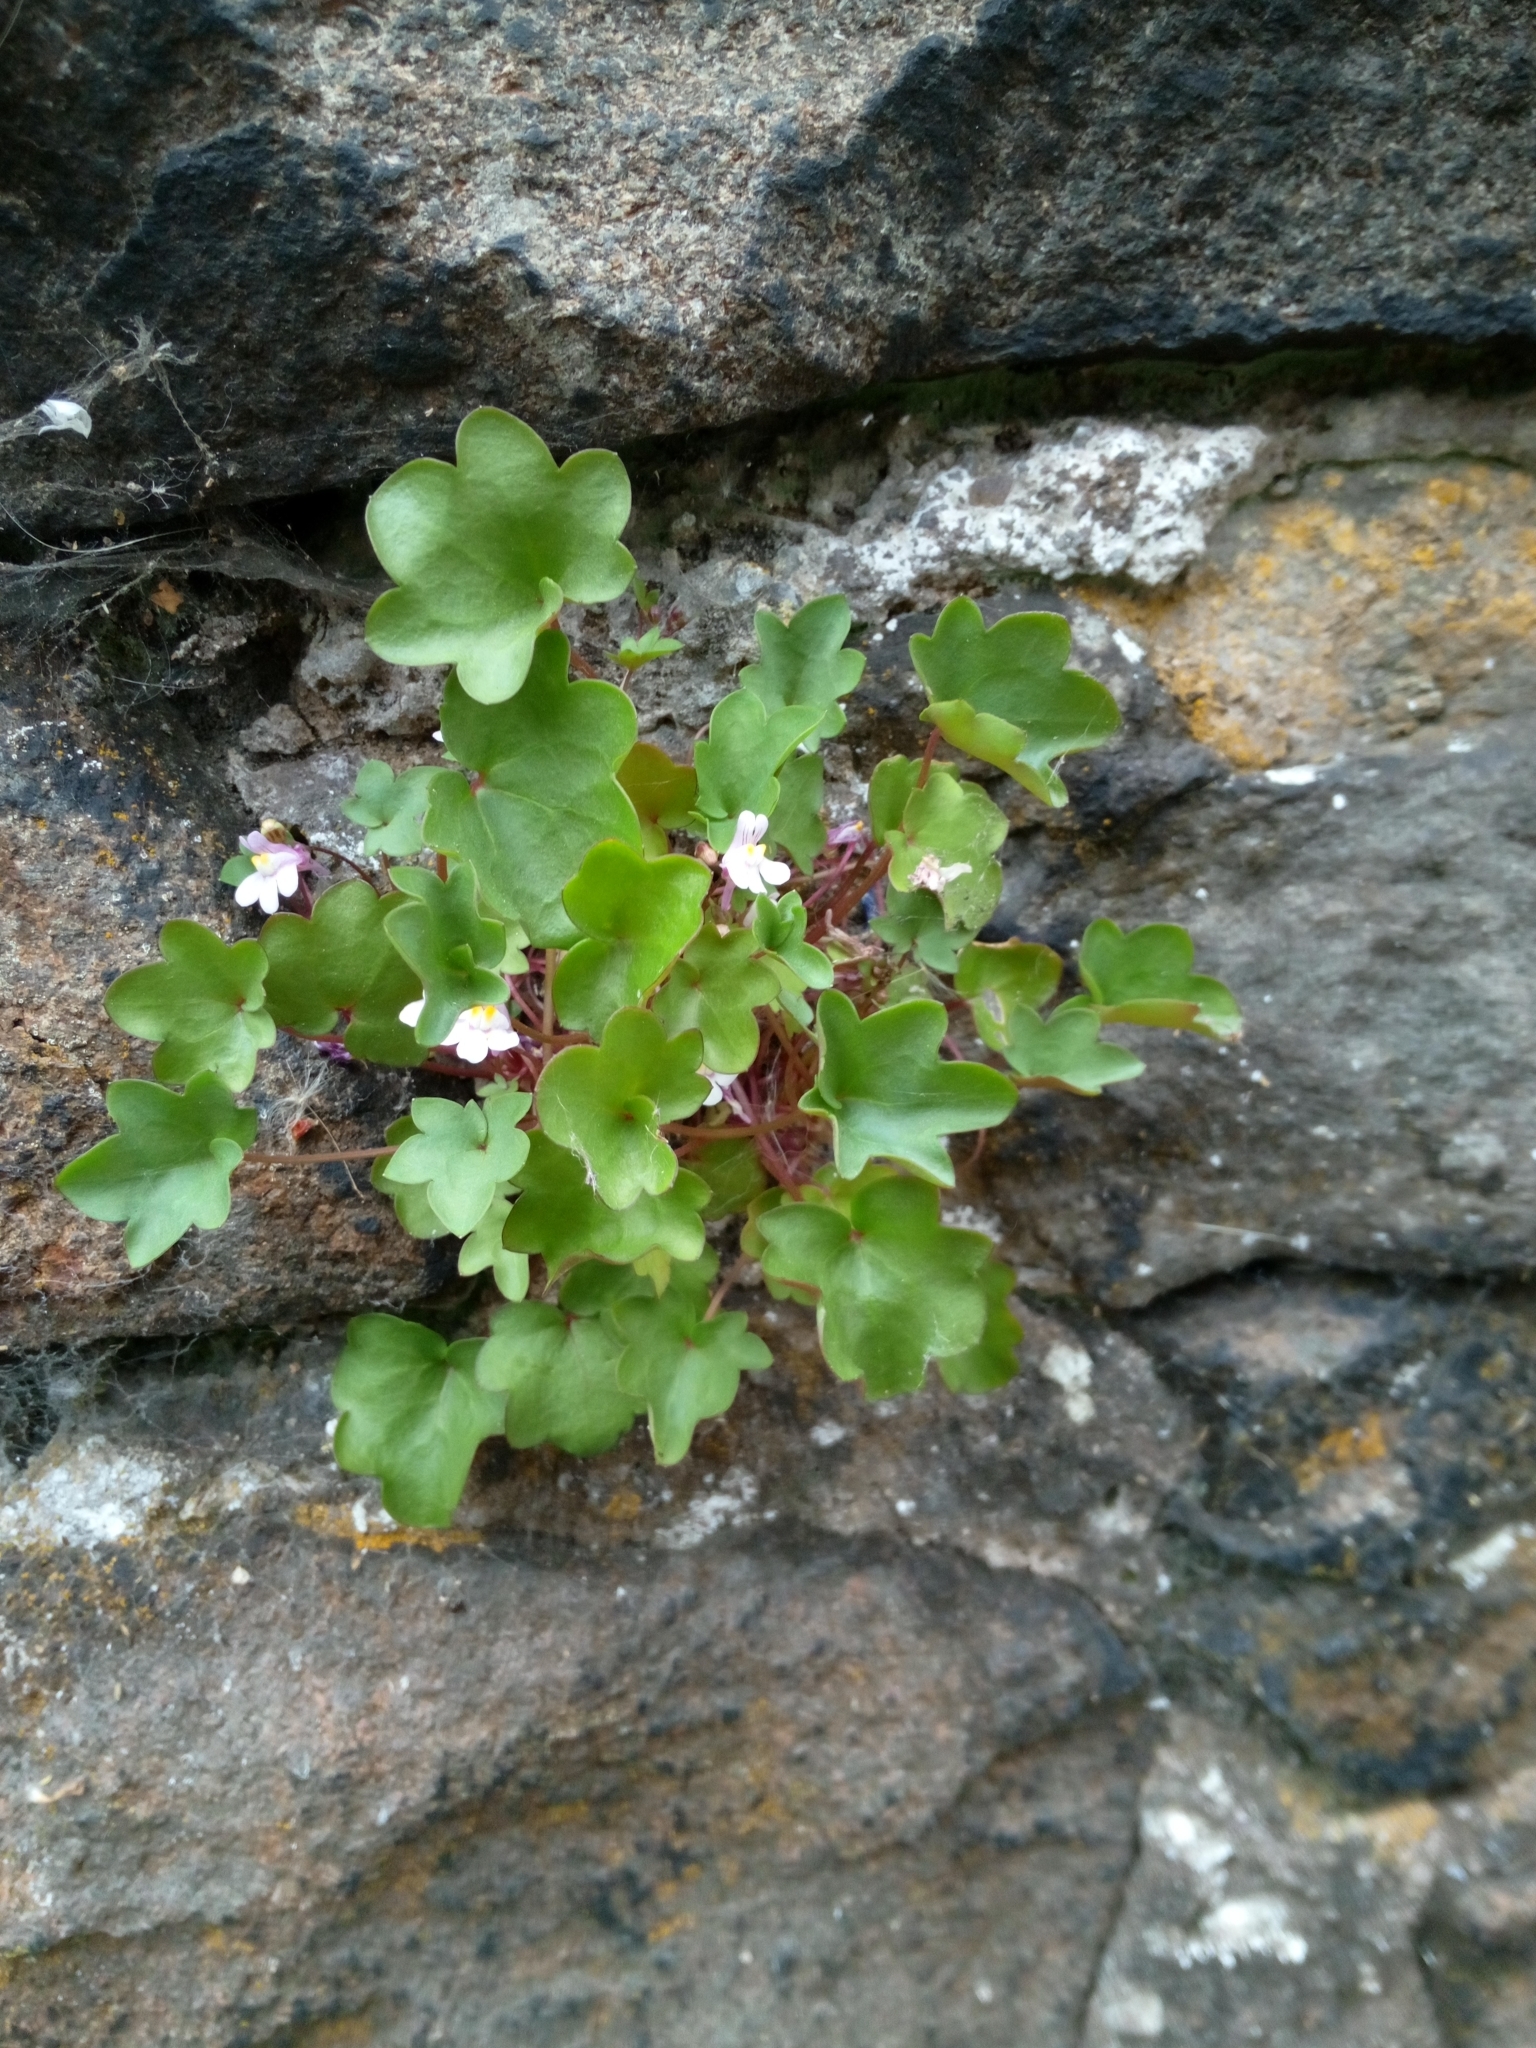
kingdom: Plantae
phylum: Tracheophyta
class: Magnoliopsida
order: Lamiales
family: Plantaginaceae
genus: Cymbalaria
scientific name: Cymbalaria muralis
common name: Ivy-leaved toadflax
